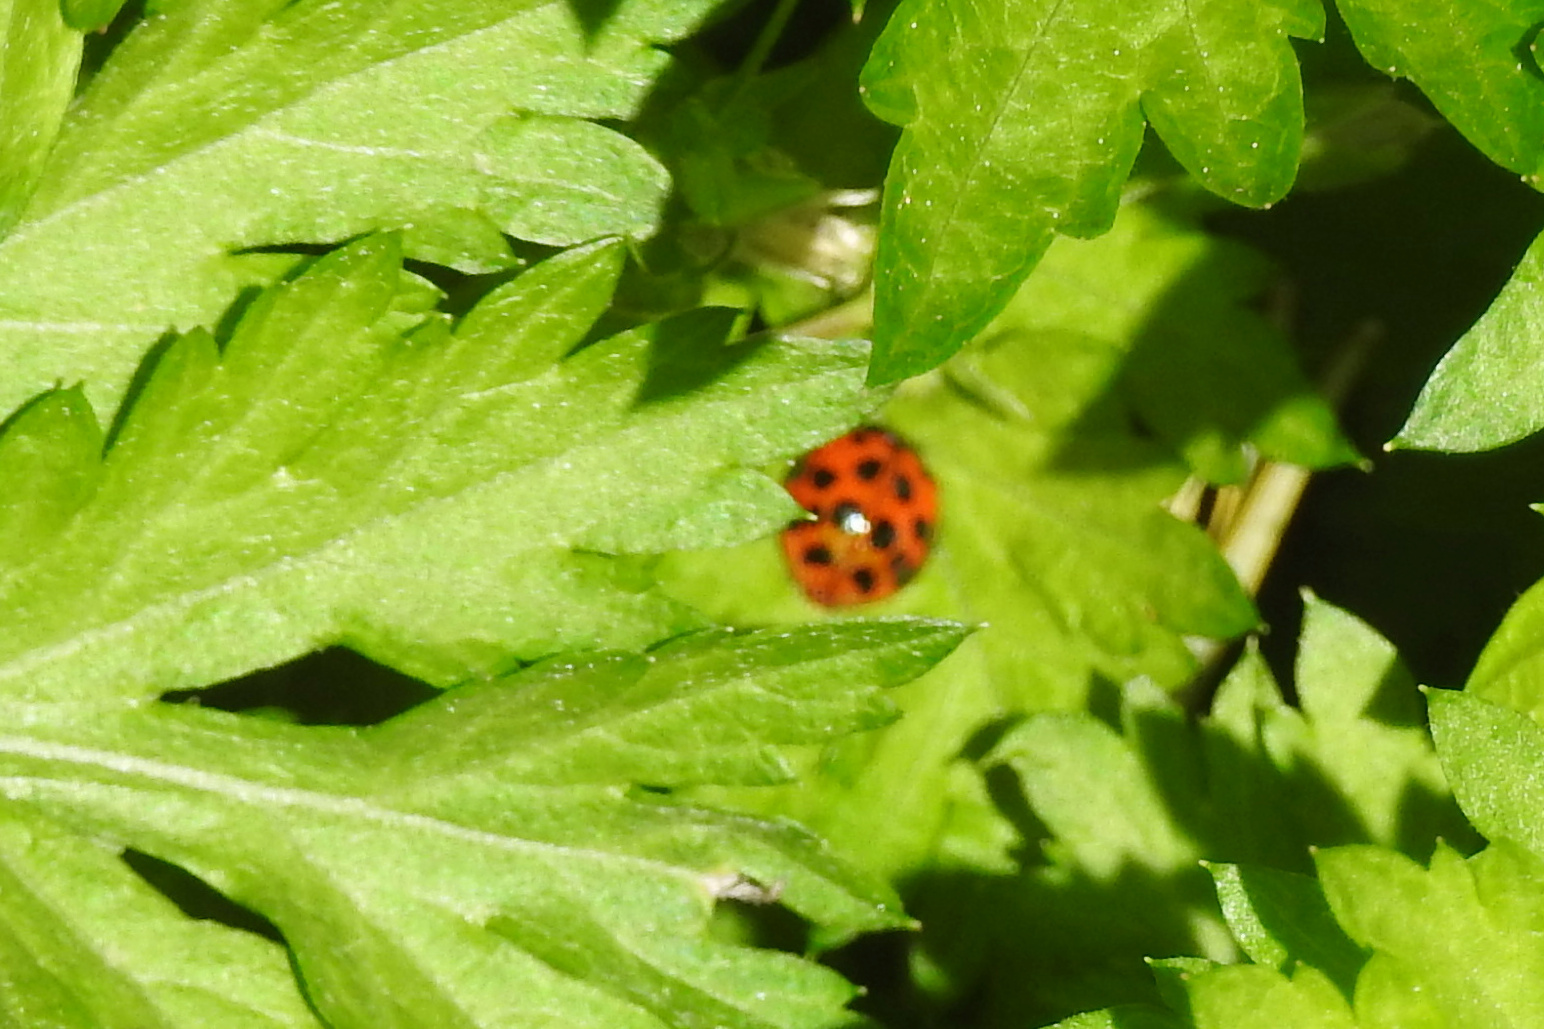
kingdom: Animalia
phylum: Arthropoda
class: Insecta
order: Coleoptera
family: Coccinellidae
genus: Harmonia
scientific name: Harmonia axyridis
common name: Harlequin ladybird
